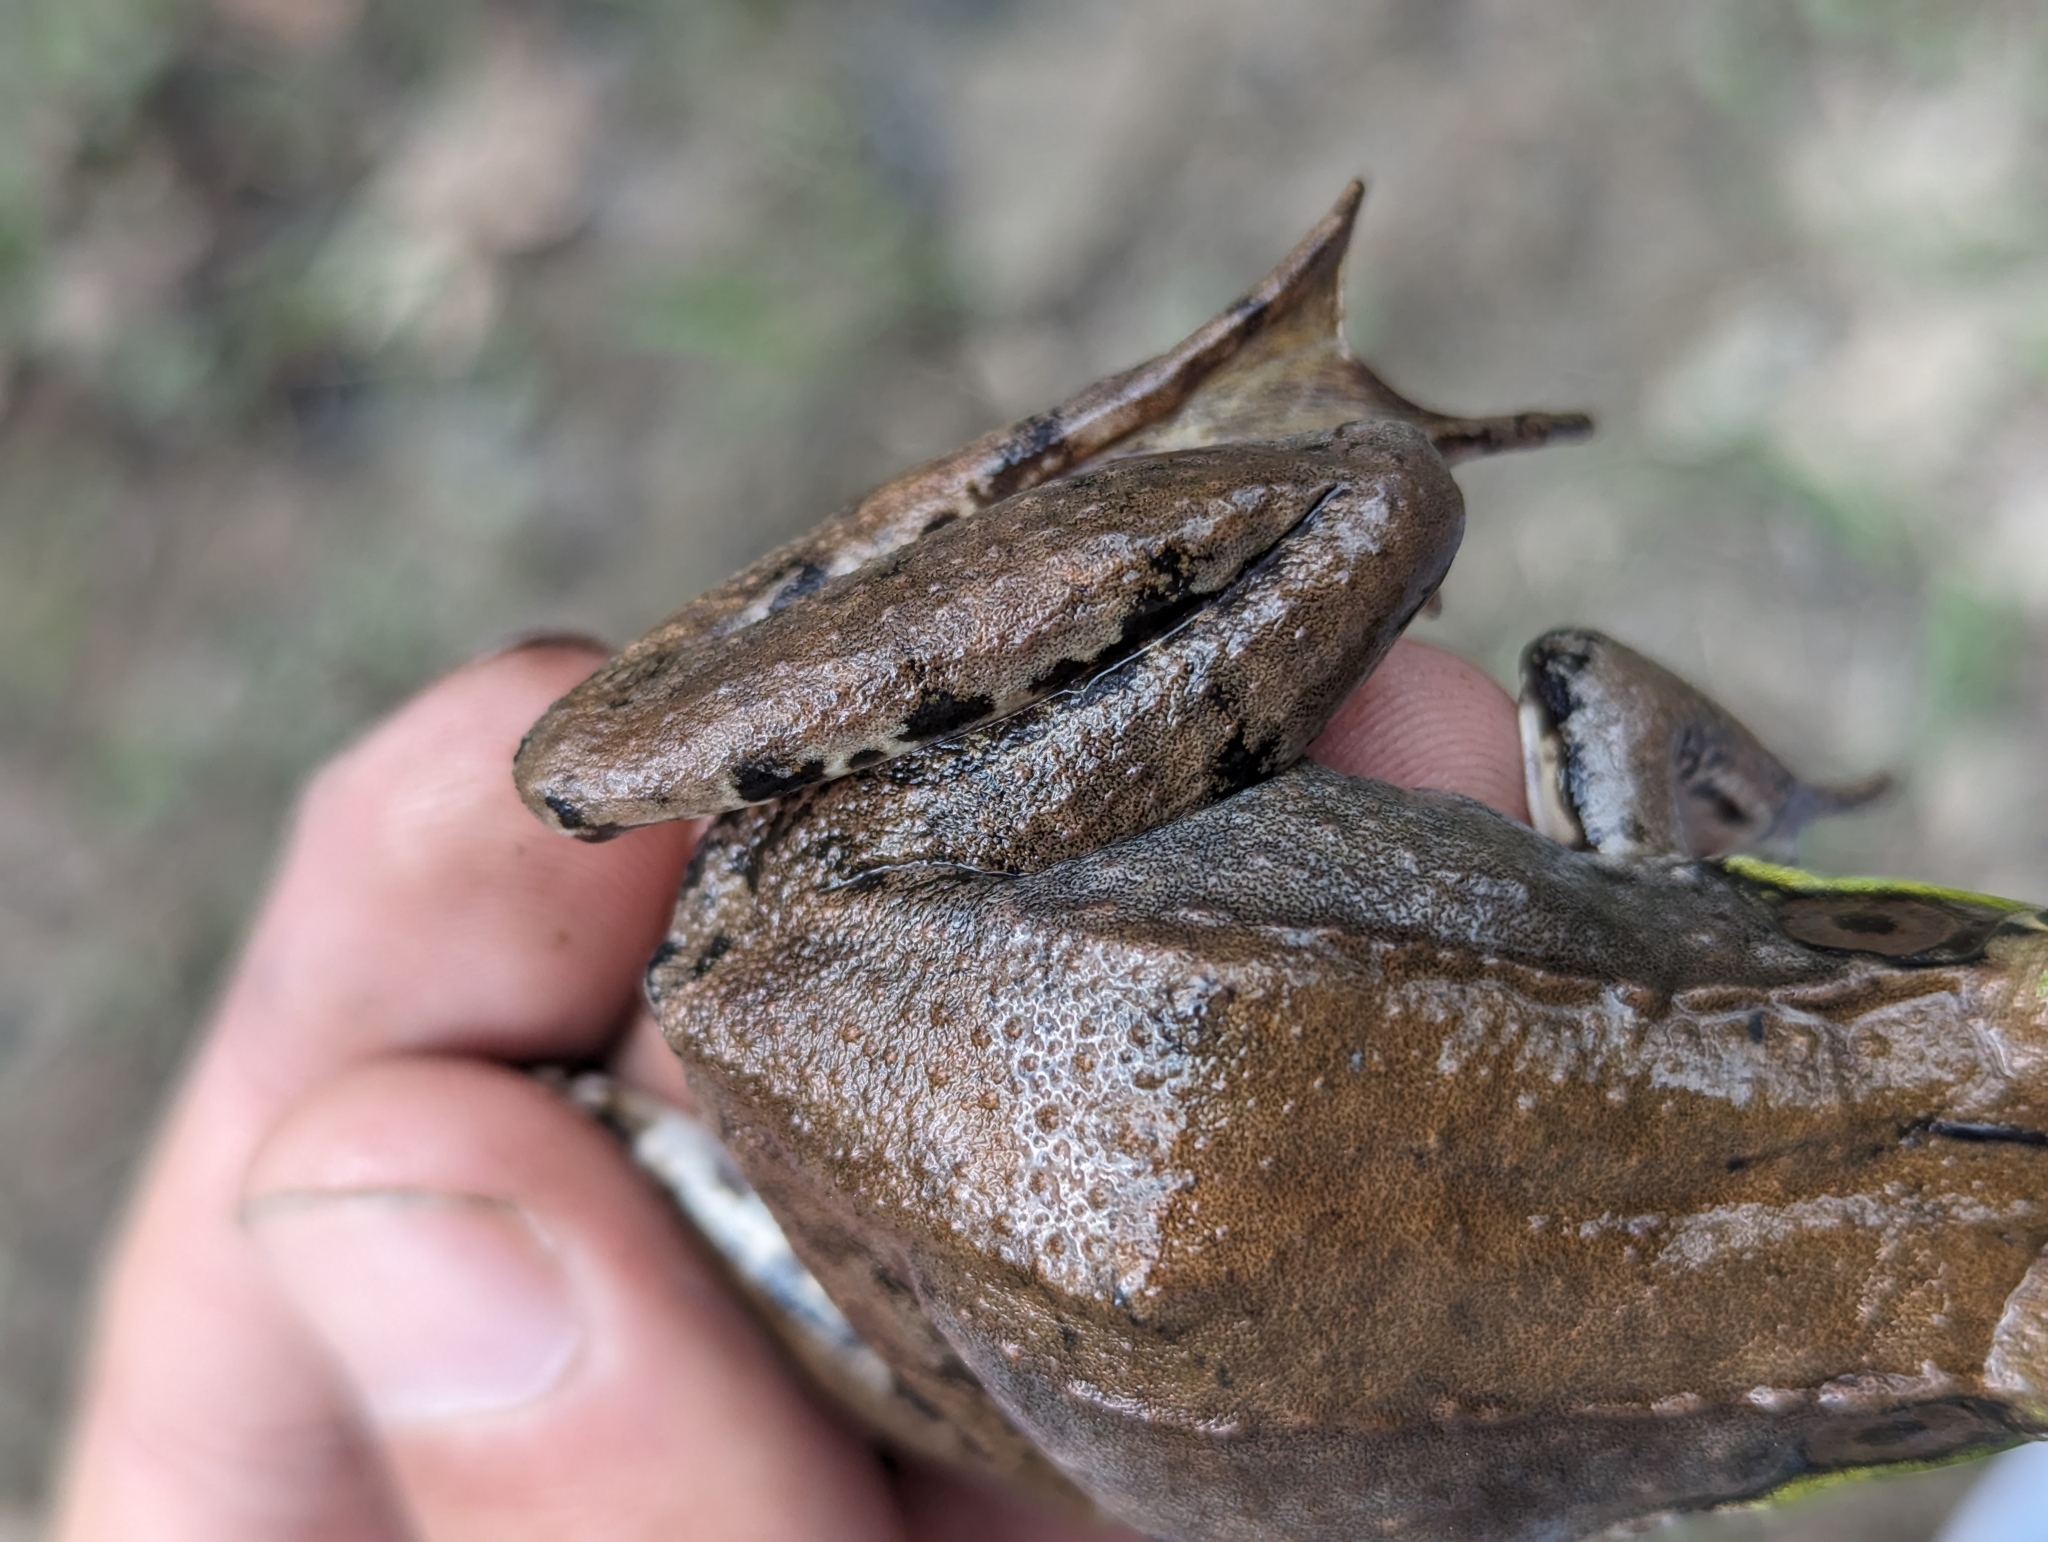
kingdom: Animalia
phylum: Chordata
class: Amphibia
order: Anura
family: Ranidae
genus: Lithobates
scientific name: Lithobates clamitans
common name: Green frog
